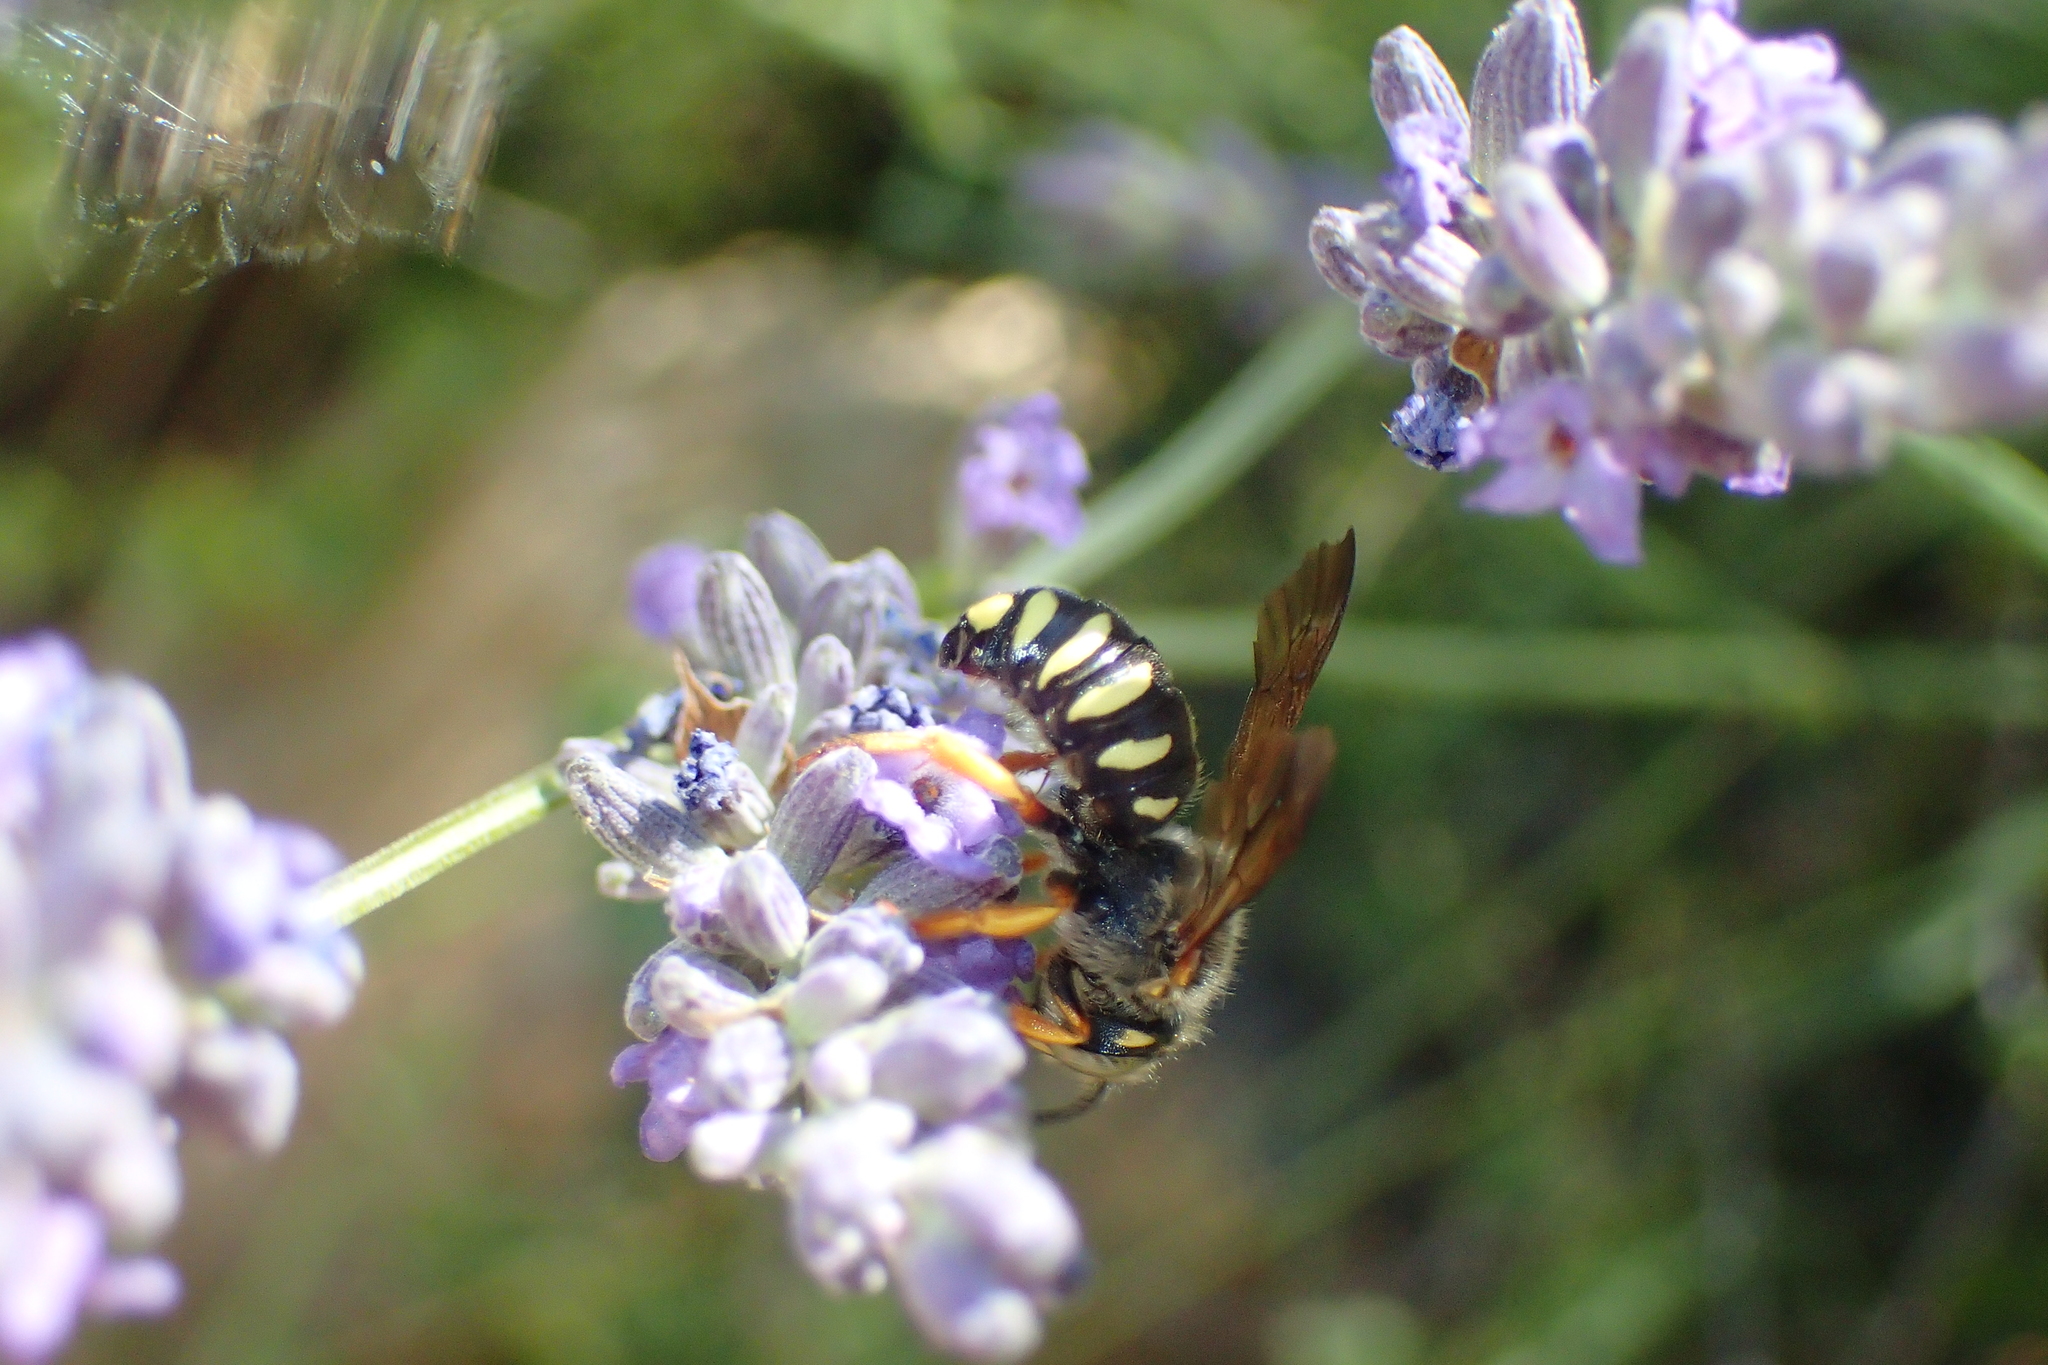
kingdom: Animalia
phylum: Arthropoda
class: Insecta
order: Hymenoptera
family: Megachilidae
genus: Rhodanthidium
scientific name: Rhodanthidium septemdentatum
